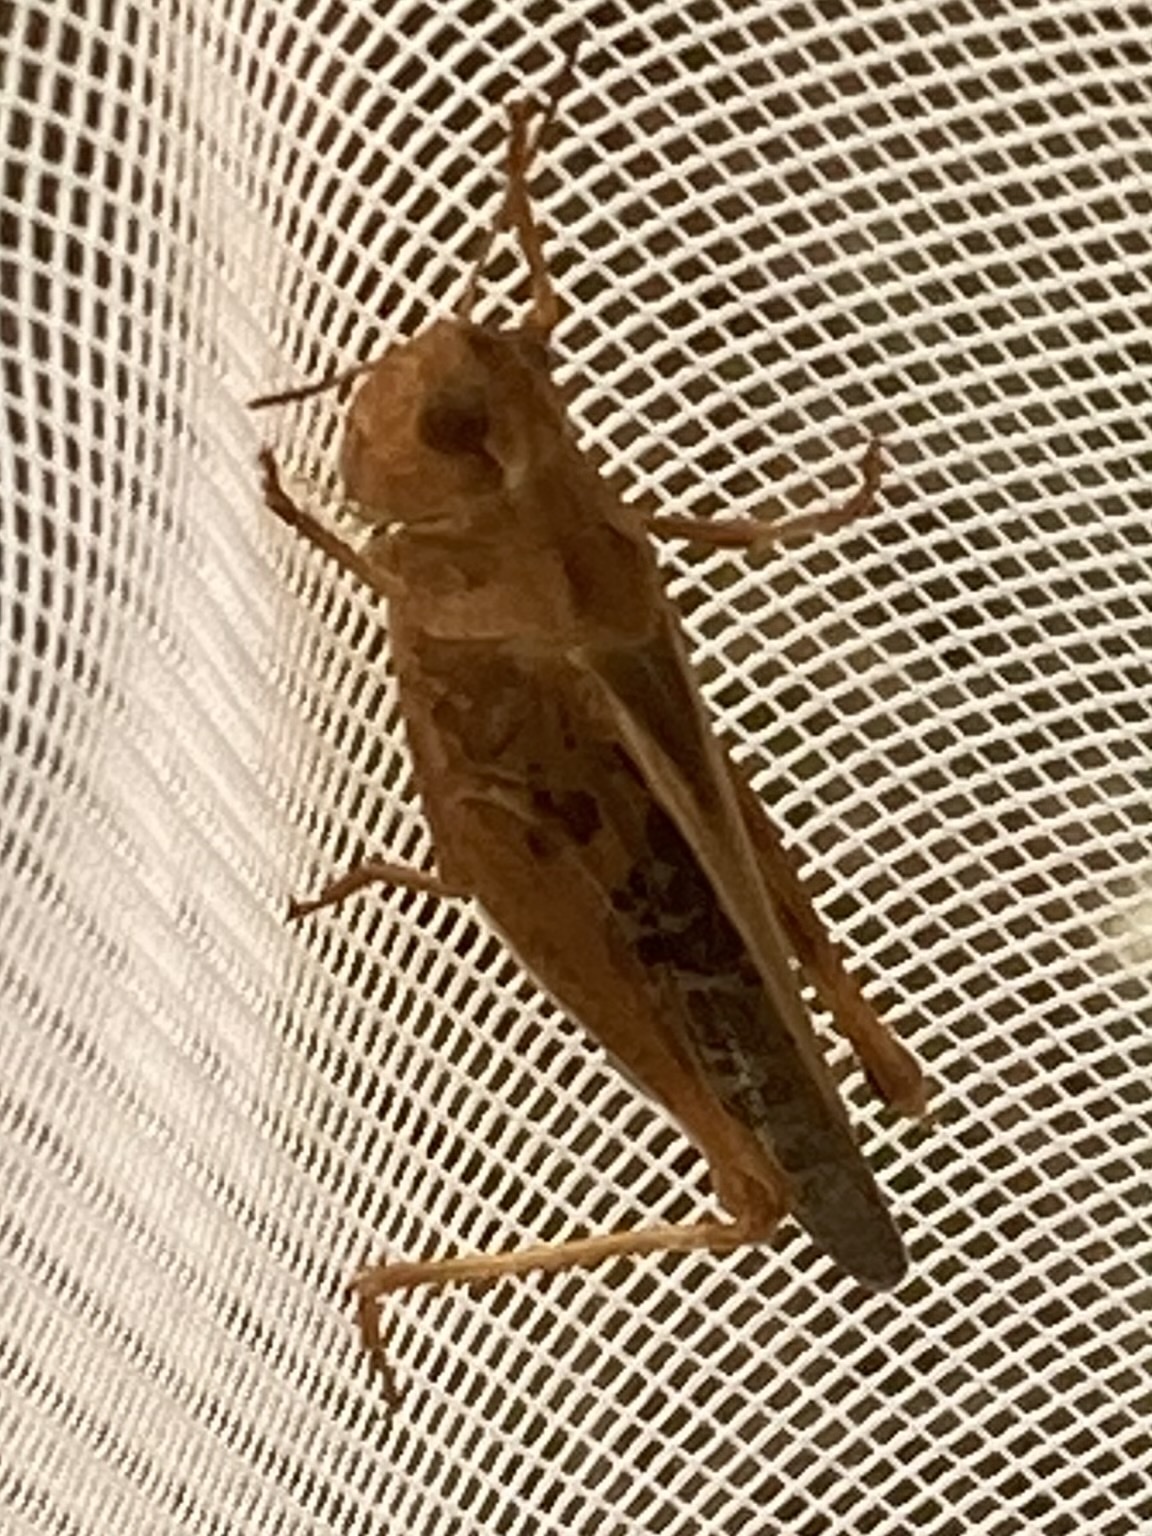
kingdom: Animalia
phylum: Arthropoda
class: Insecta
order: Orthoptera
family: Acrididae
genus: Camnula
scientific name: Camnula pellucida
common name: Clear-winged grasshopper
